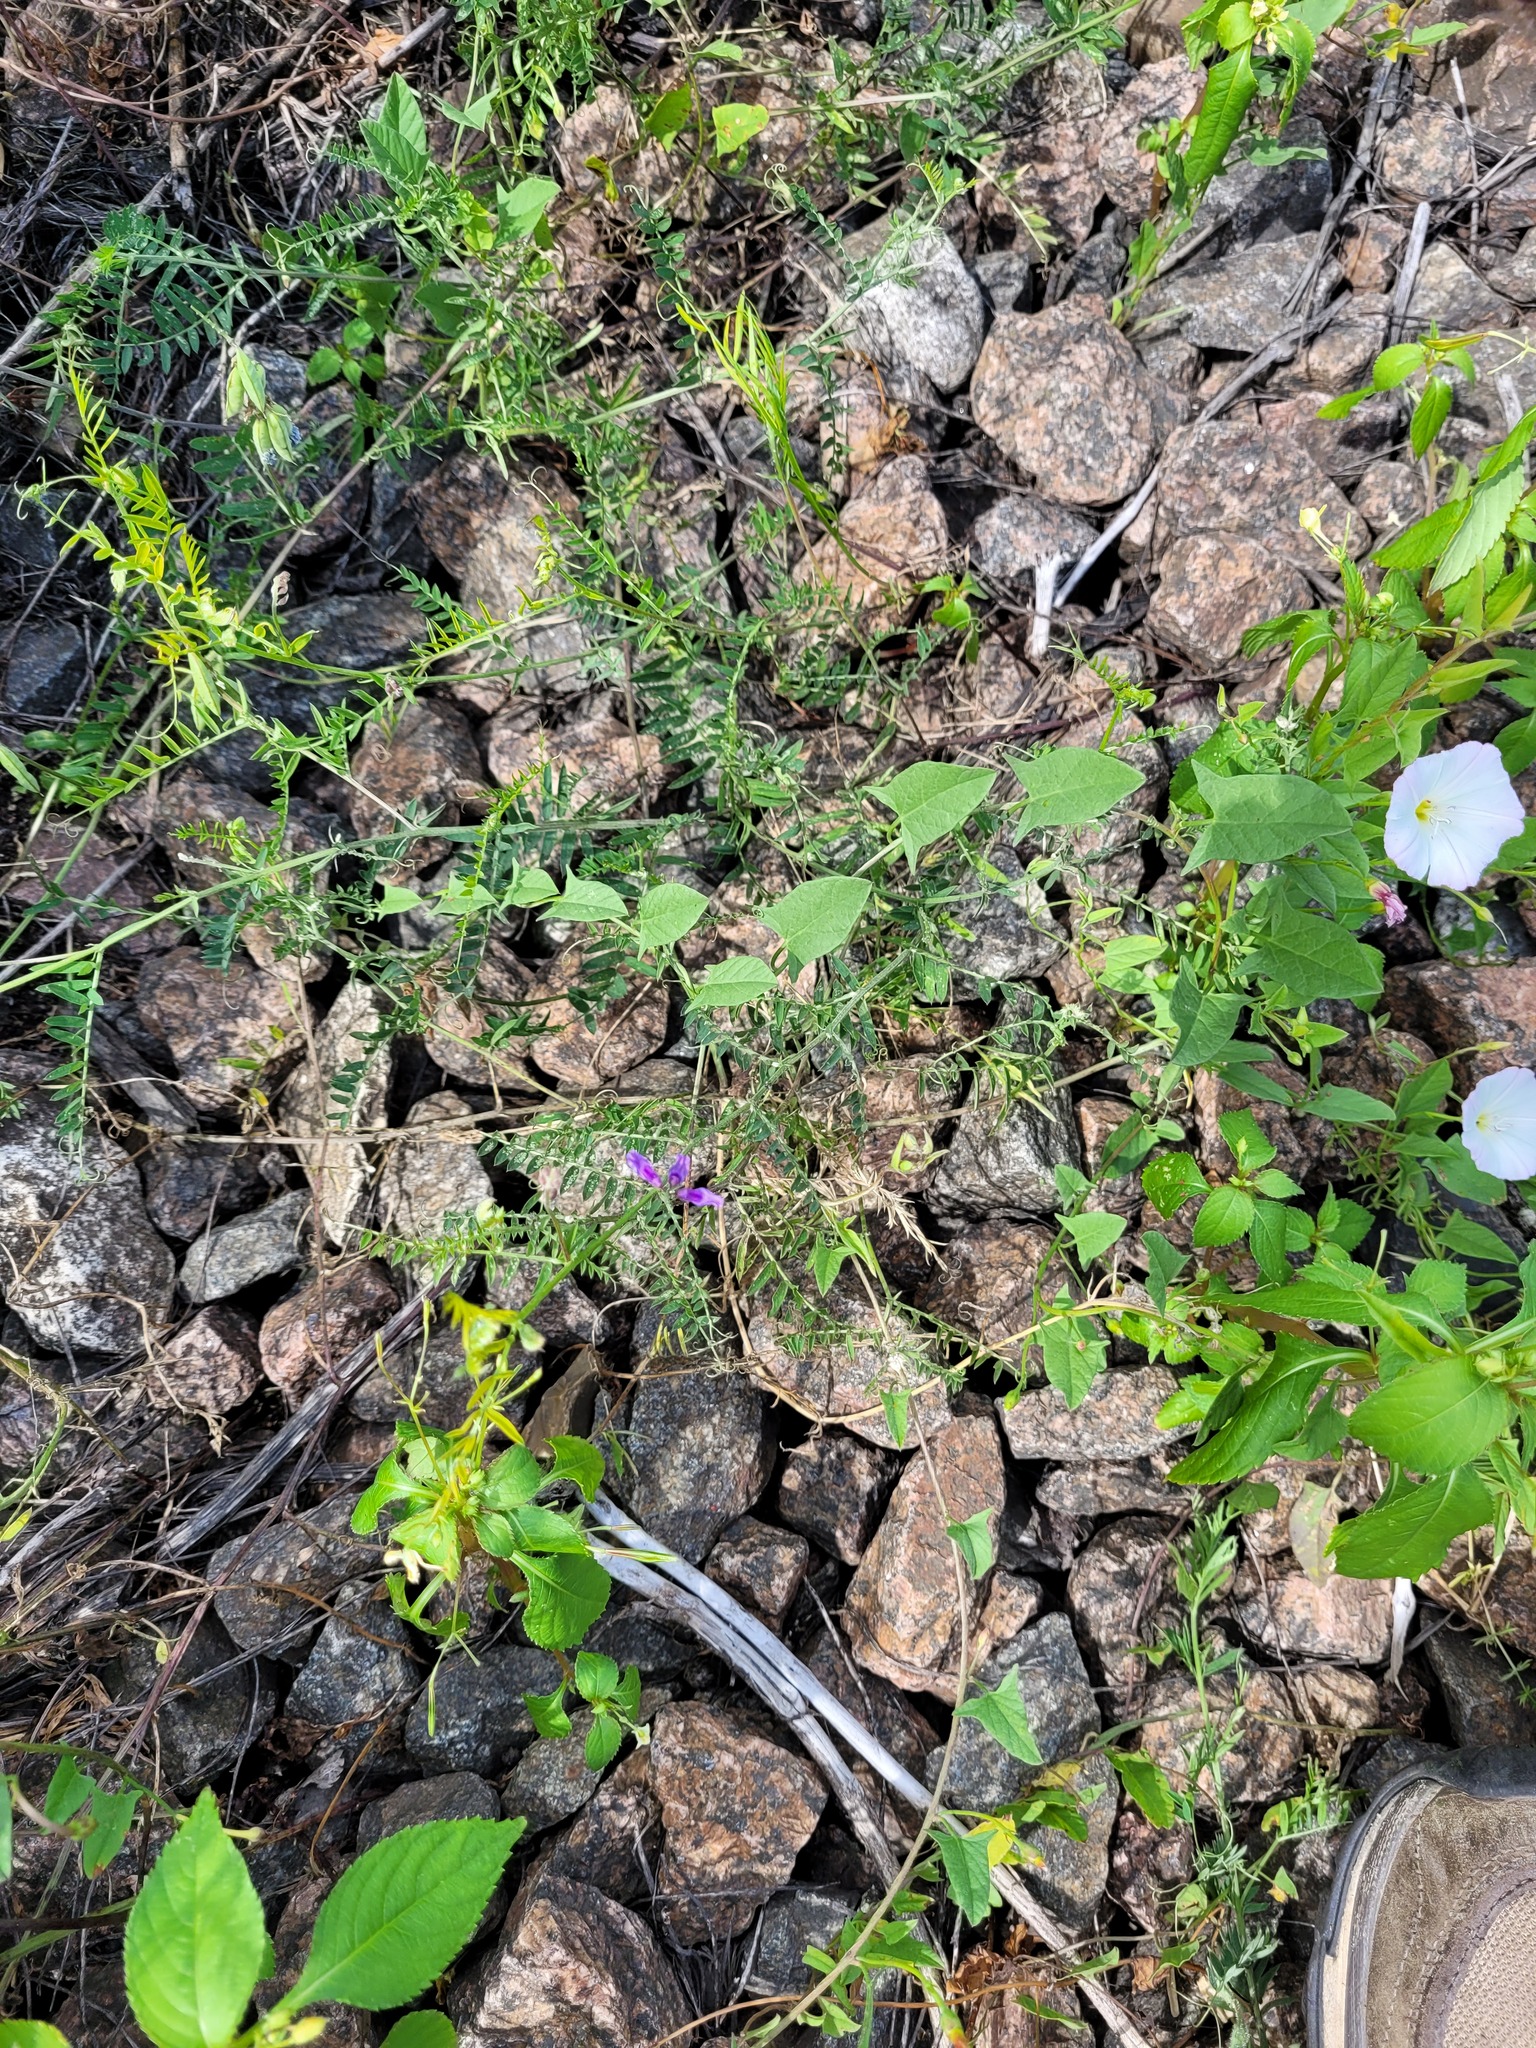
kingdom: Plantae
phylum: Tracheophyta
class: Magnoliopsida
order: Fabales
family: Fabaceae
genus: Vicia
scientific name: Vicia cracca
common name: Bird vetch
